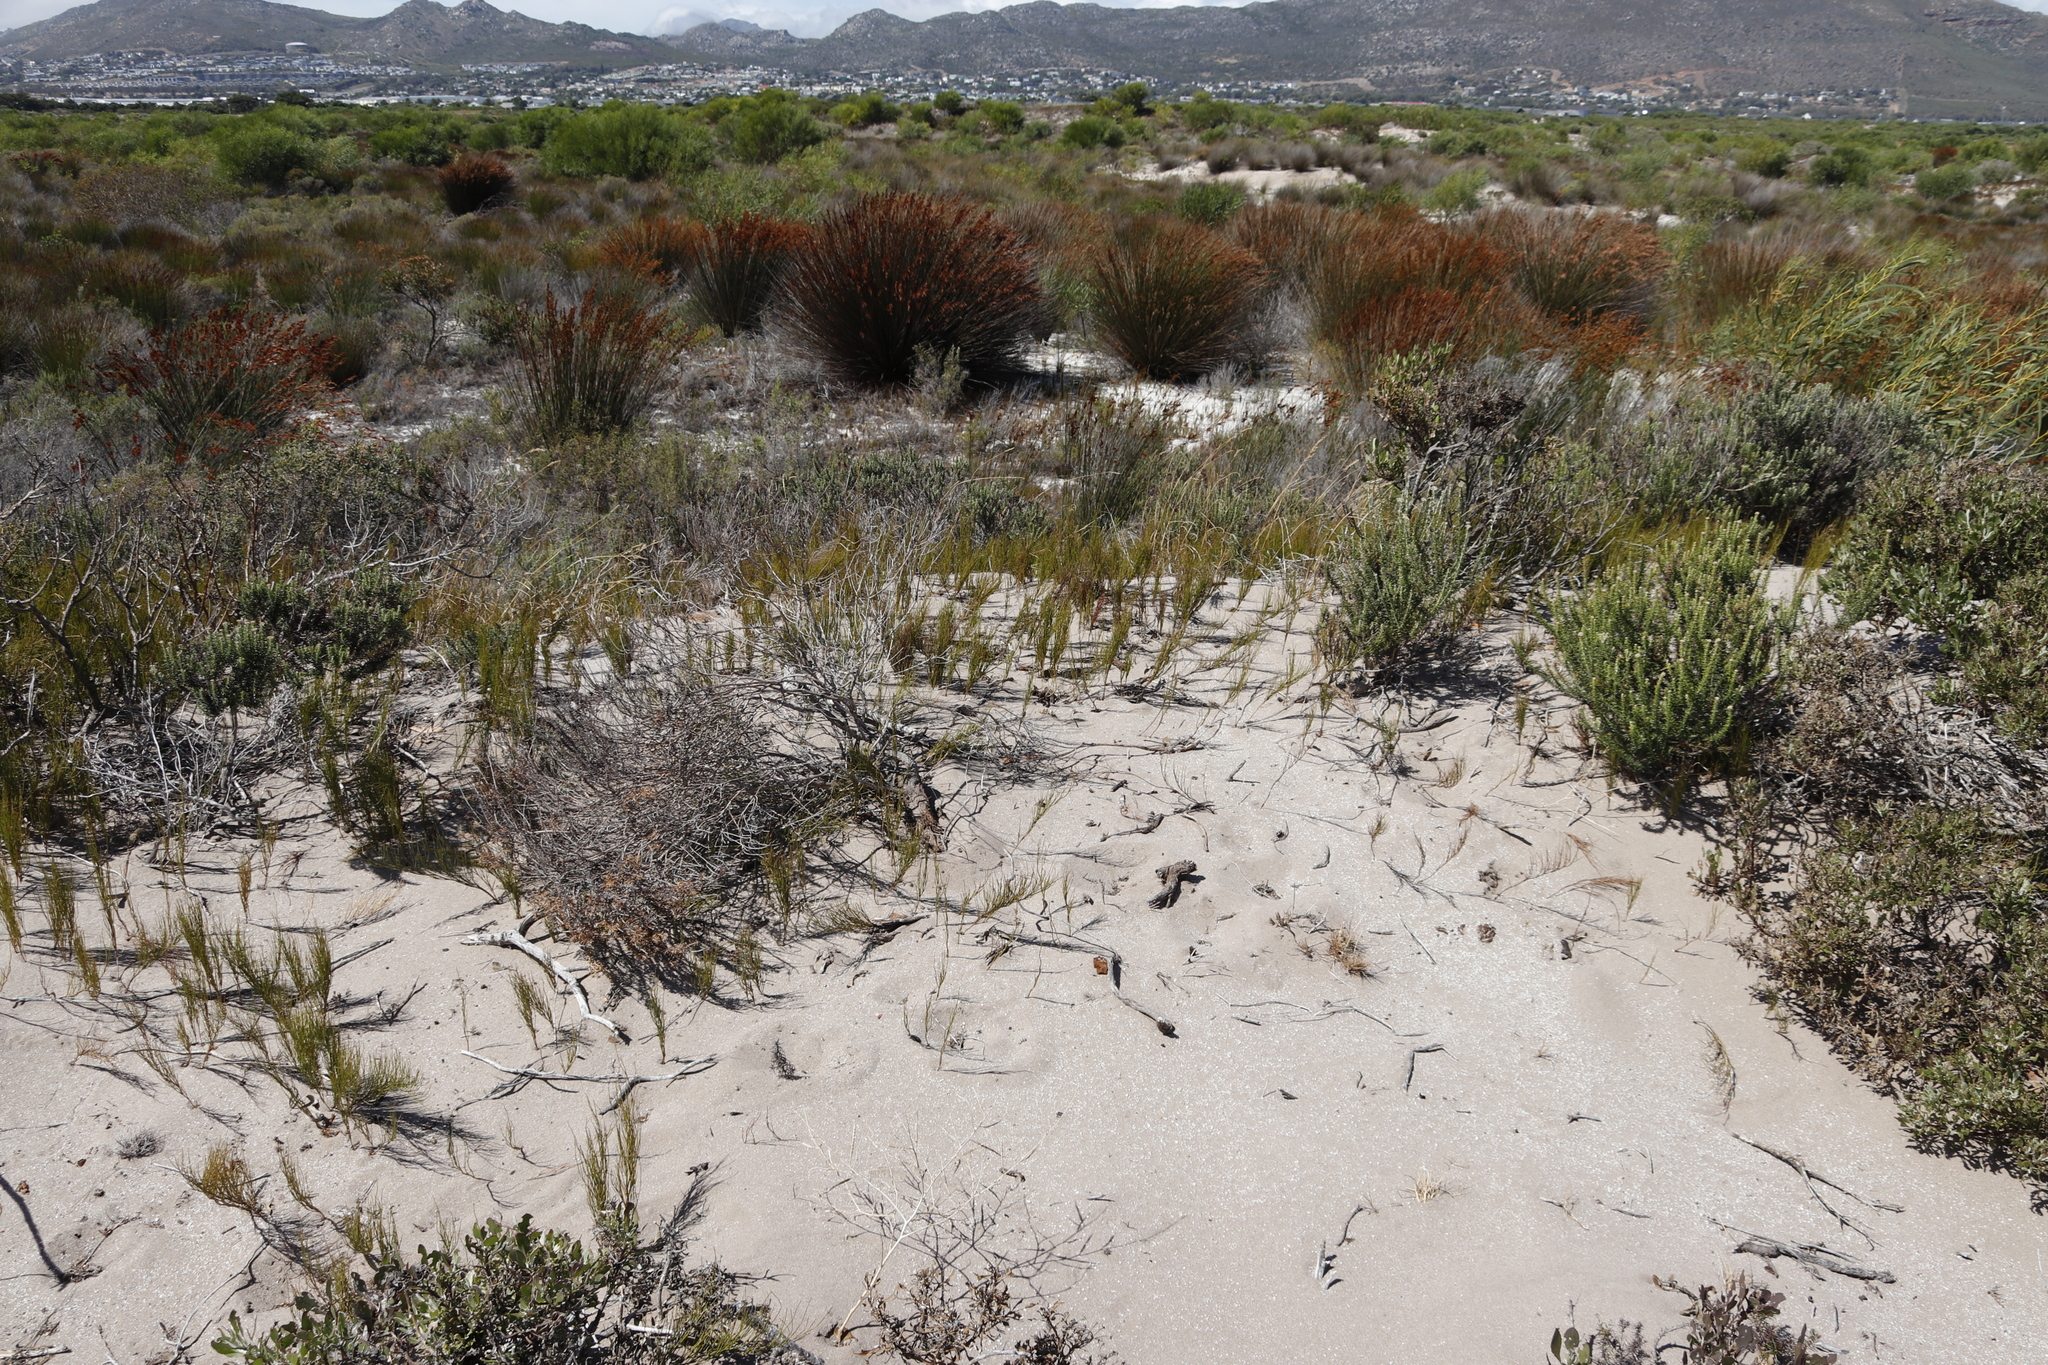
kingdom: Plantae
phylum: Tracheophyta
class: Liliopsida
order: Poales
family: Restionaceae
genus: Elegia
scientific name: Elegia tectorum
